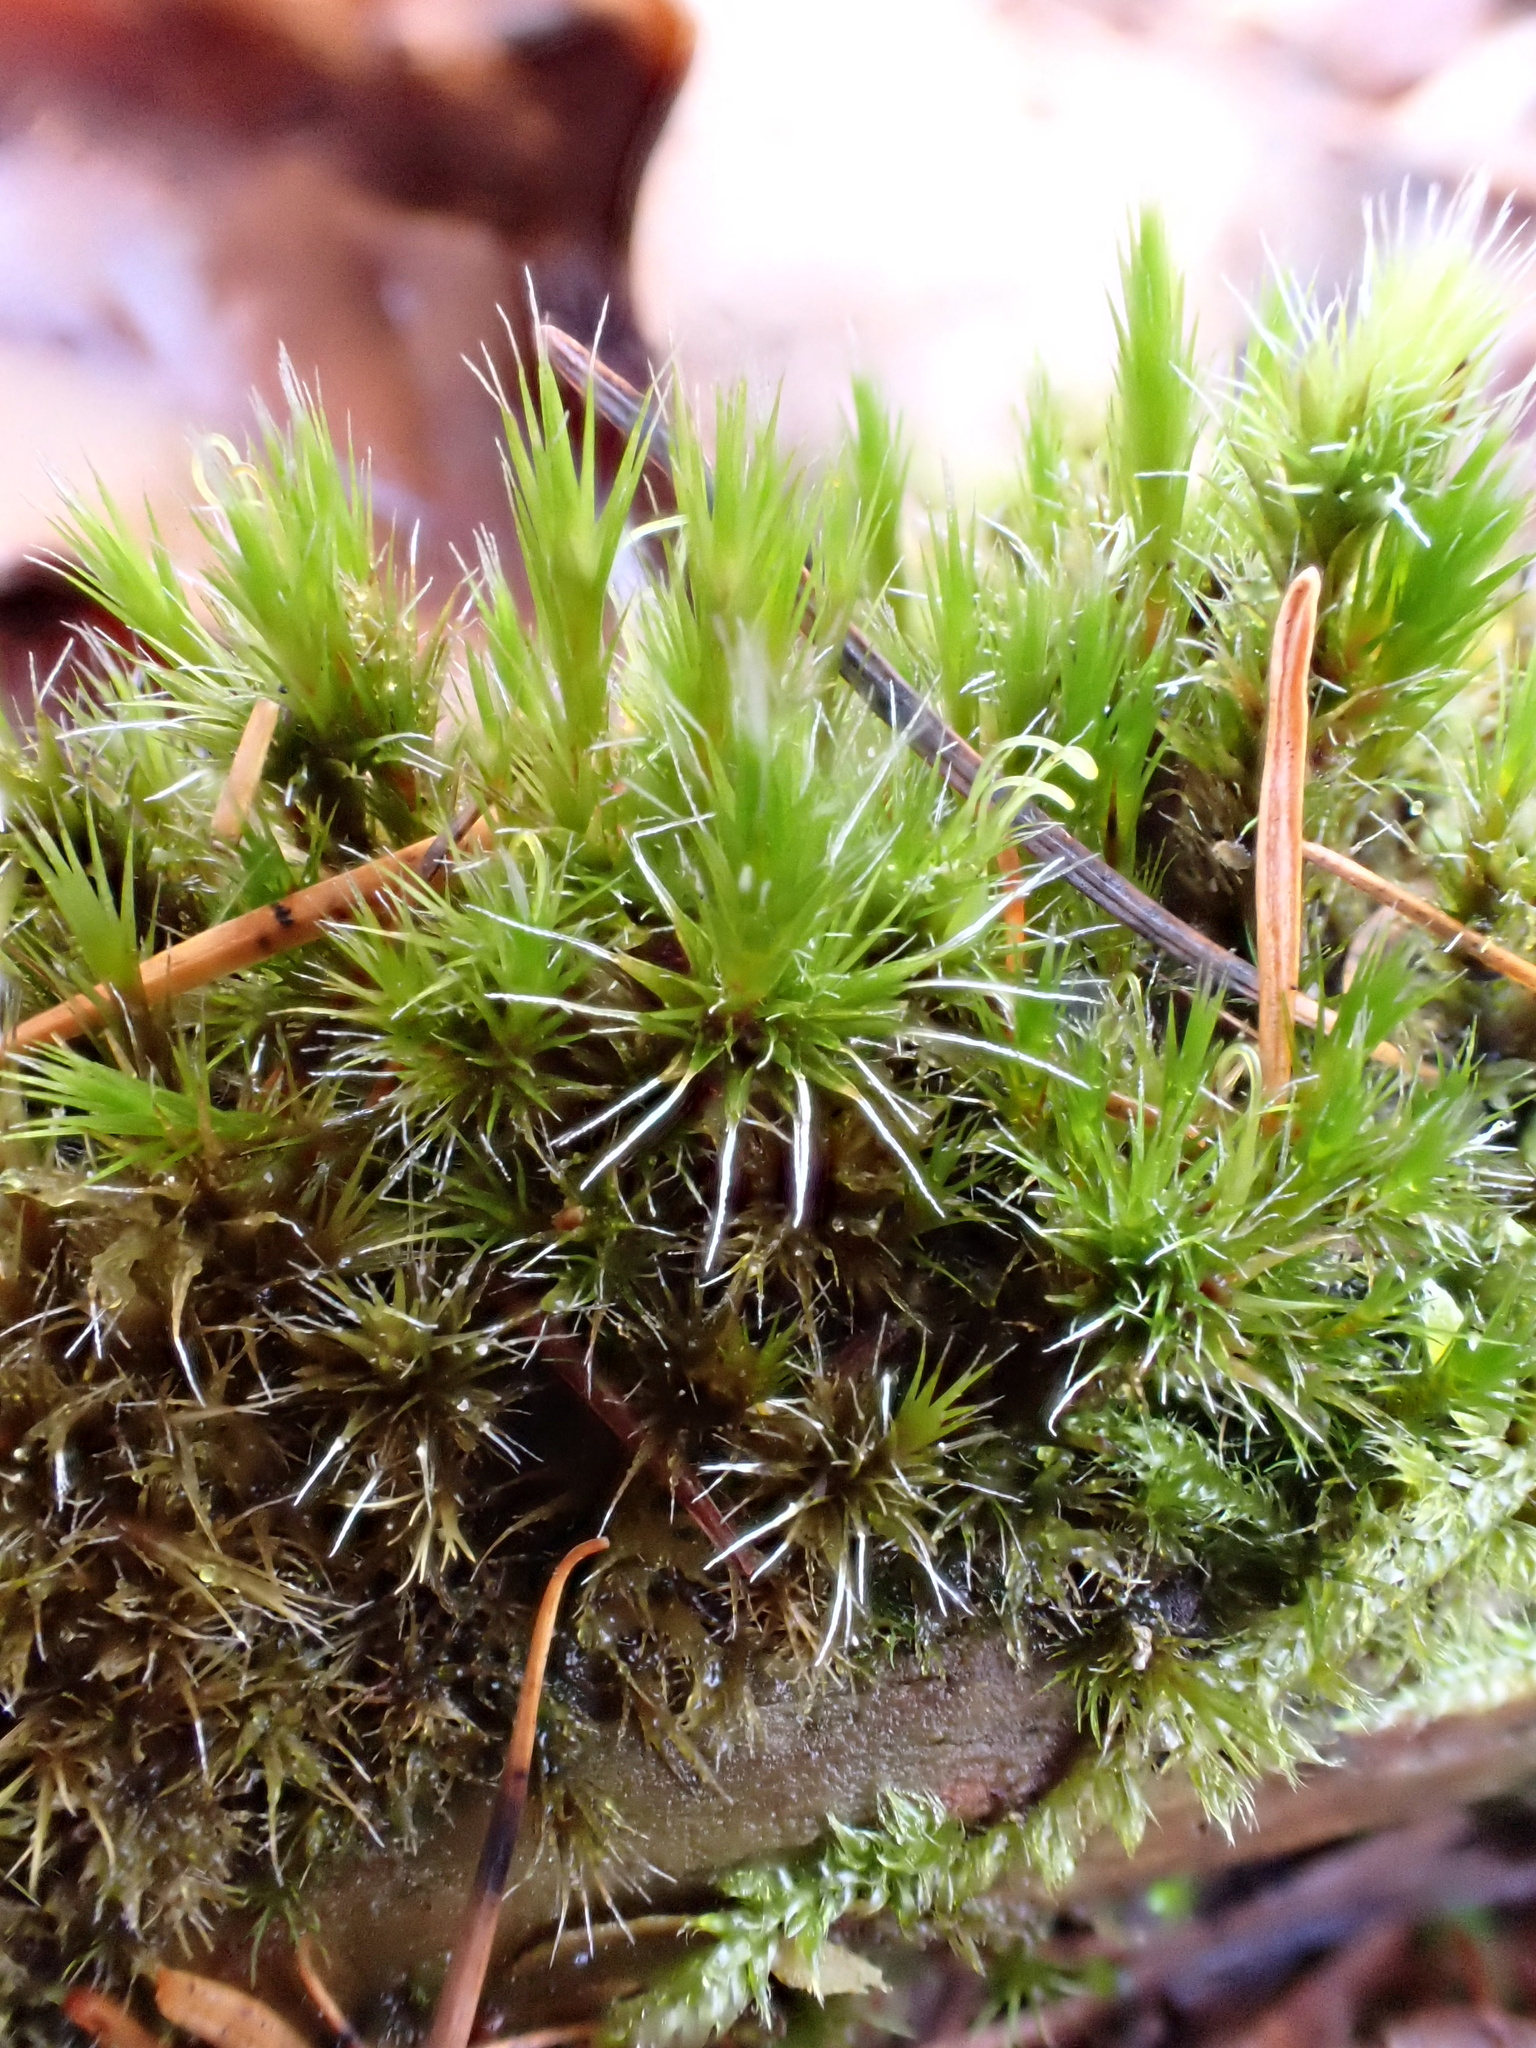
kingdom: Plantae
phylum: Bryophyta
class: Bryopsida
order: Dicranales
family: Leucobryaceae
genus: Campylopus
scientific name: Campylopus introflexus
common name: Heath star moss
